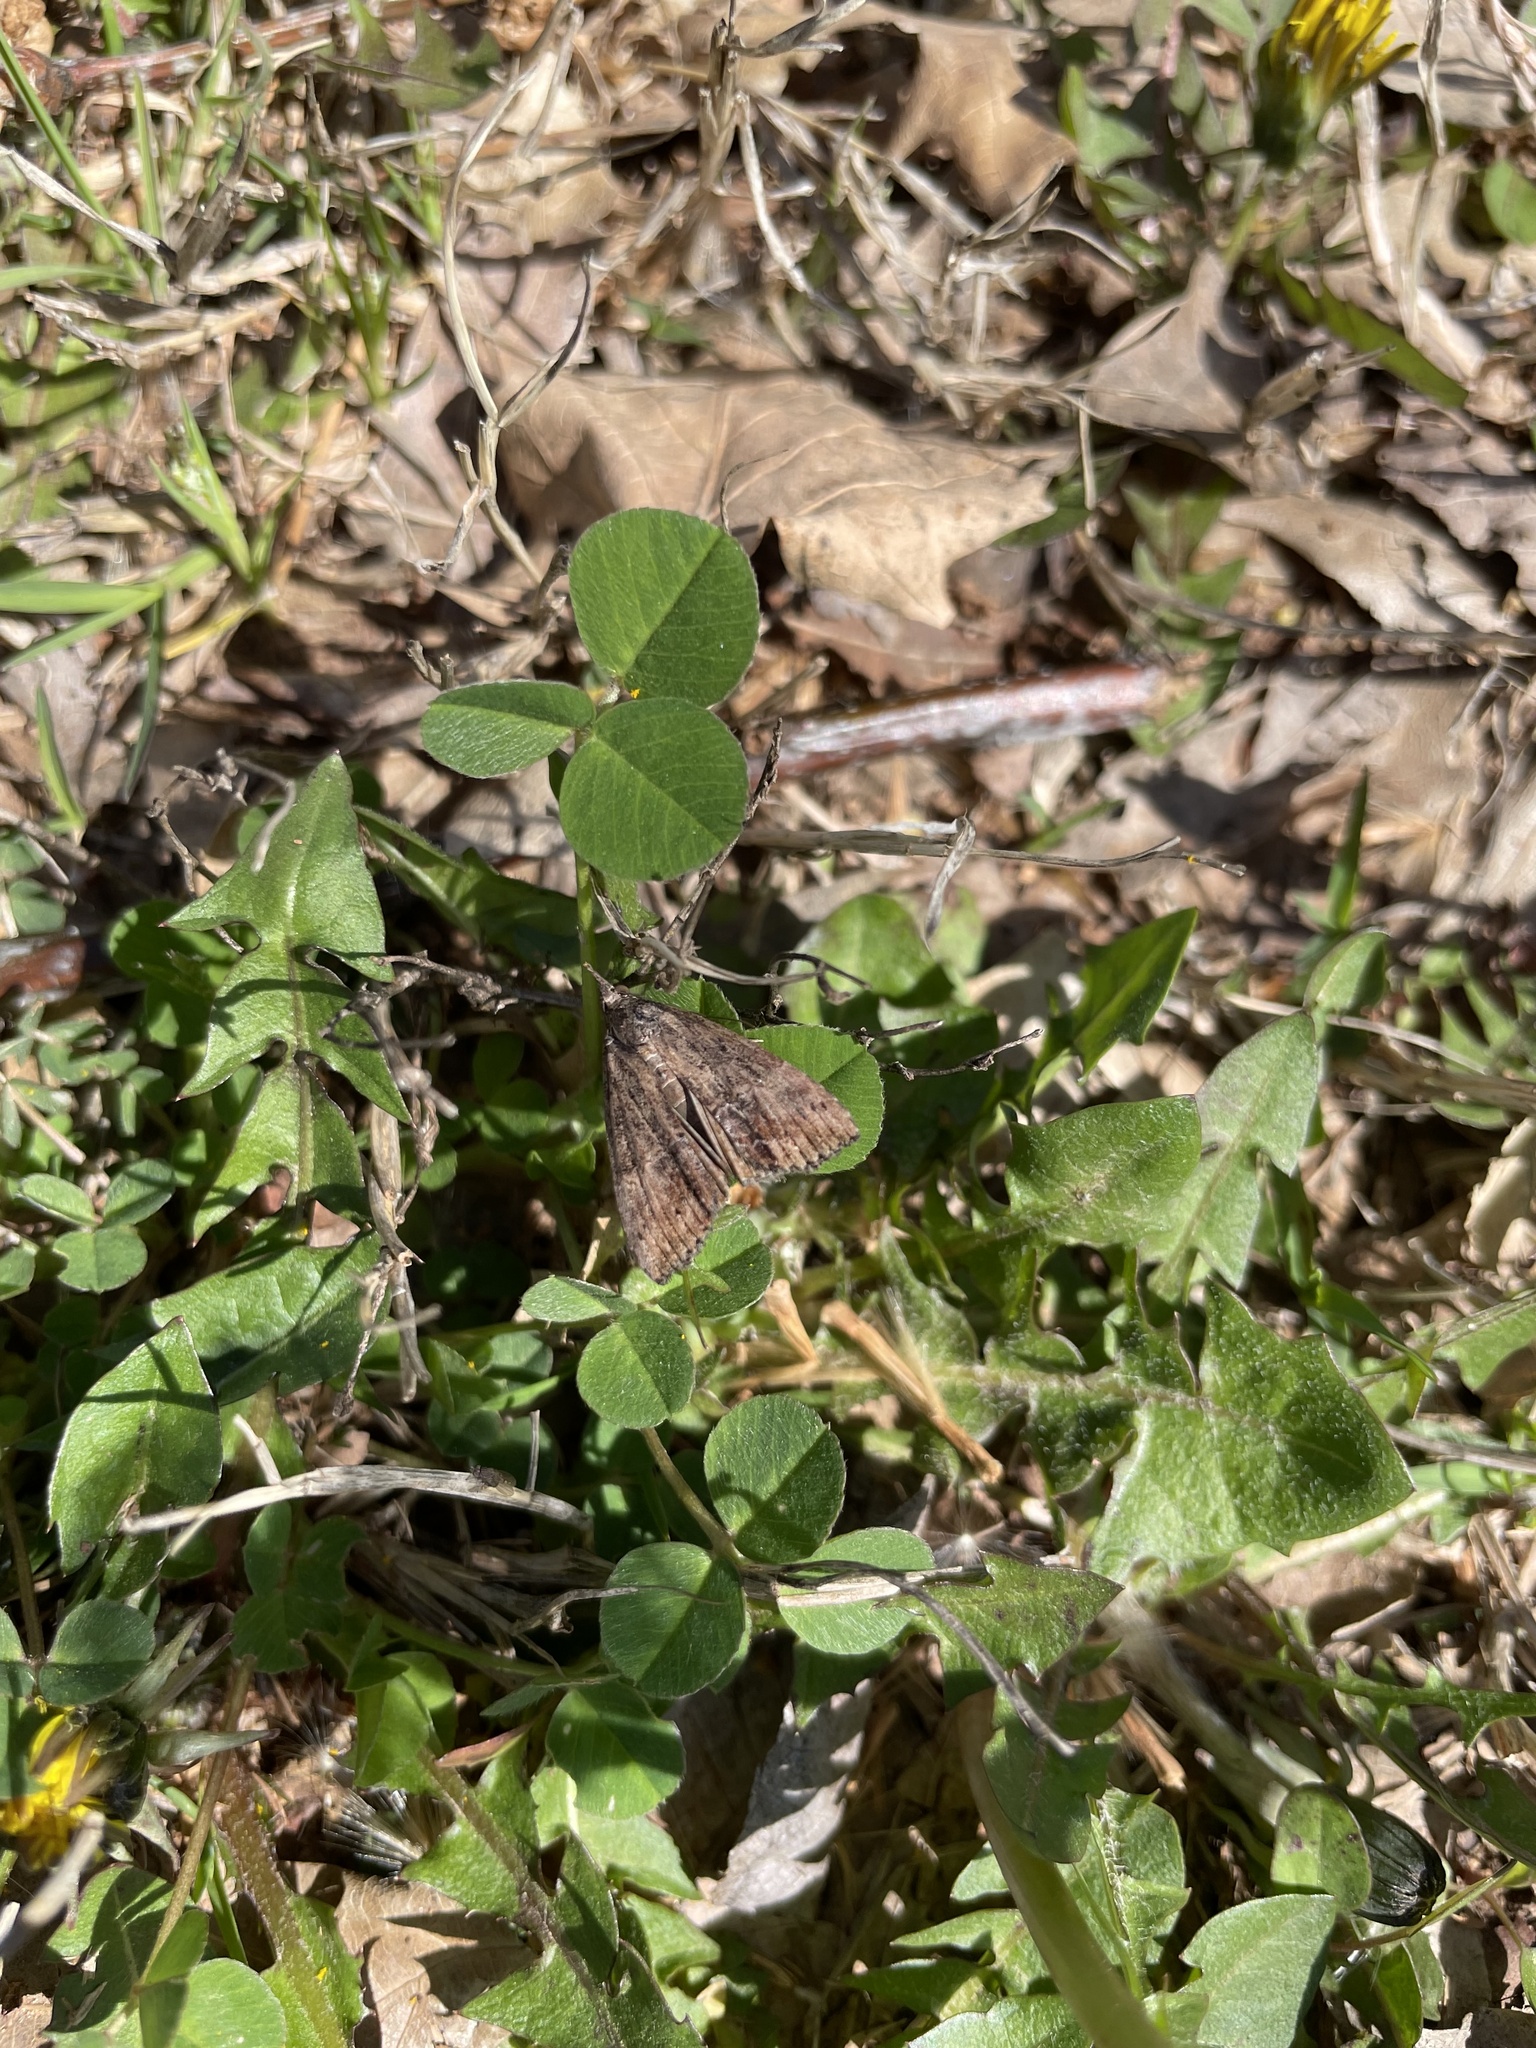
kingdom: Animalia
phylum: Arthropoda
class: Insecta
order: Lepidoptera
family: Erebidae
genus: Hypena
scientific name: Hypena scabra
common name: Green cloverworm
